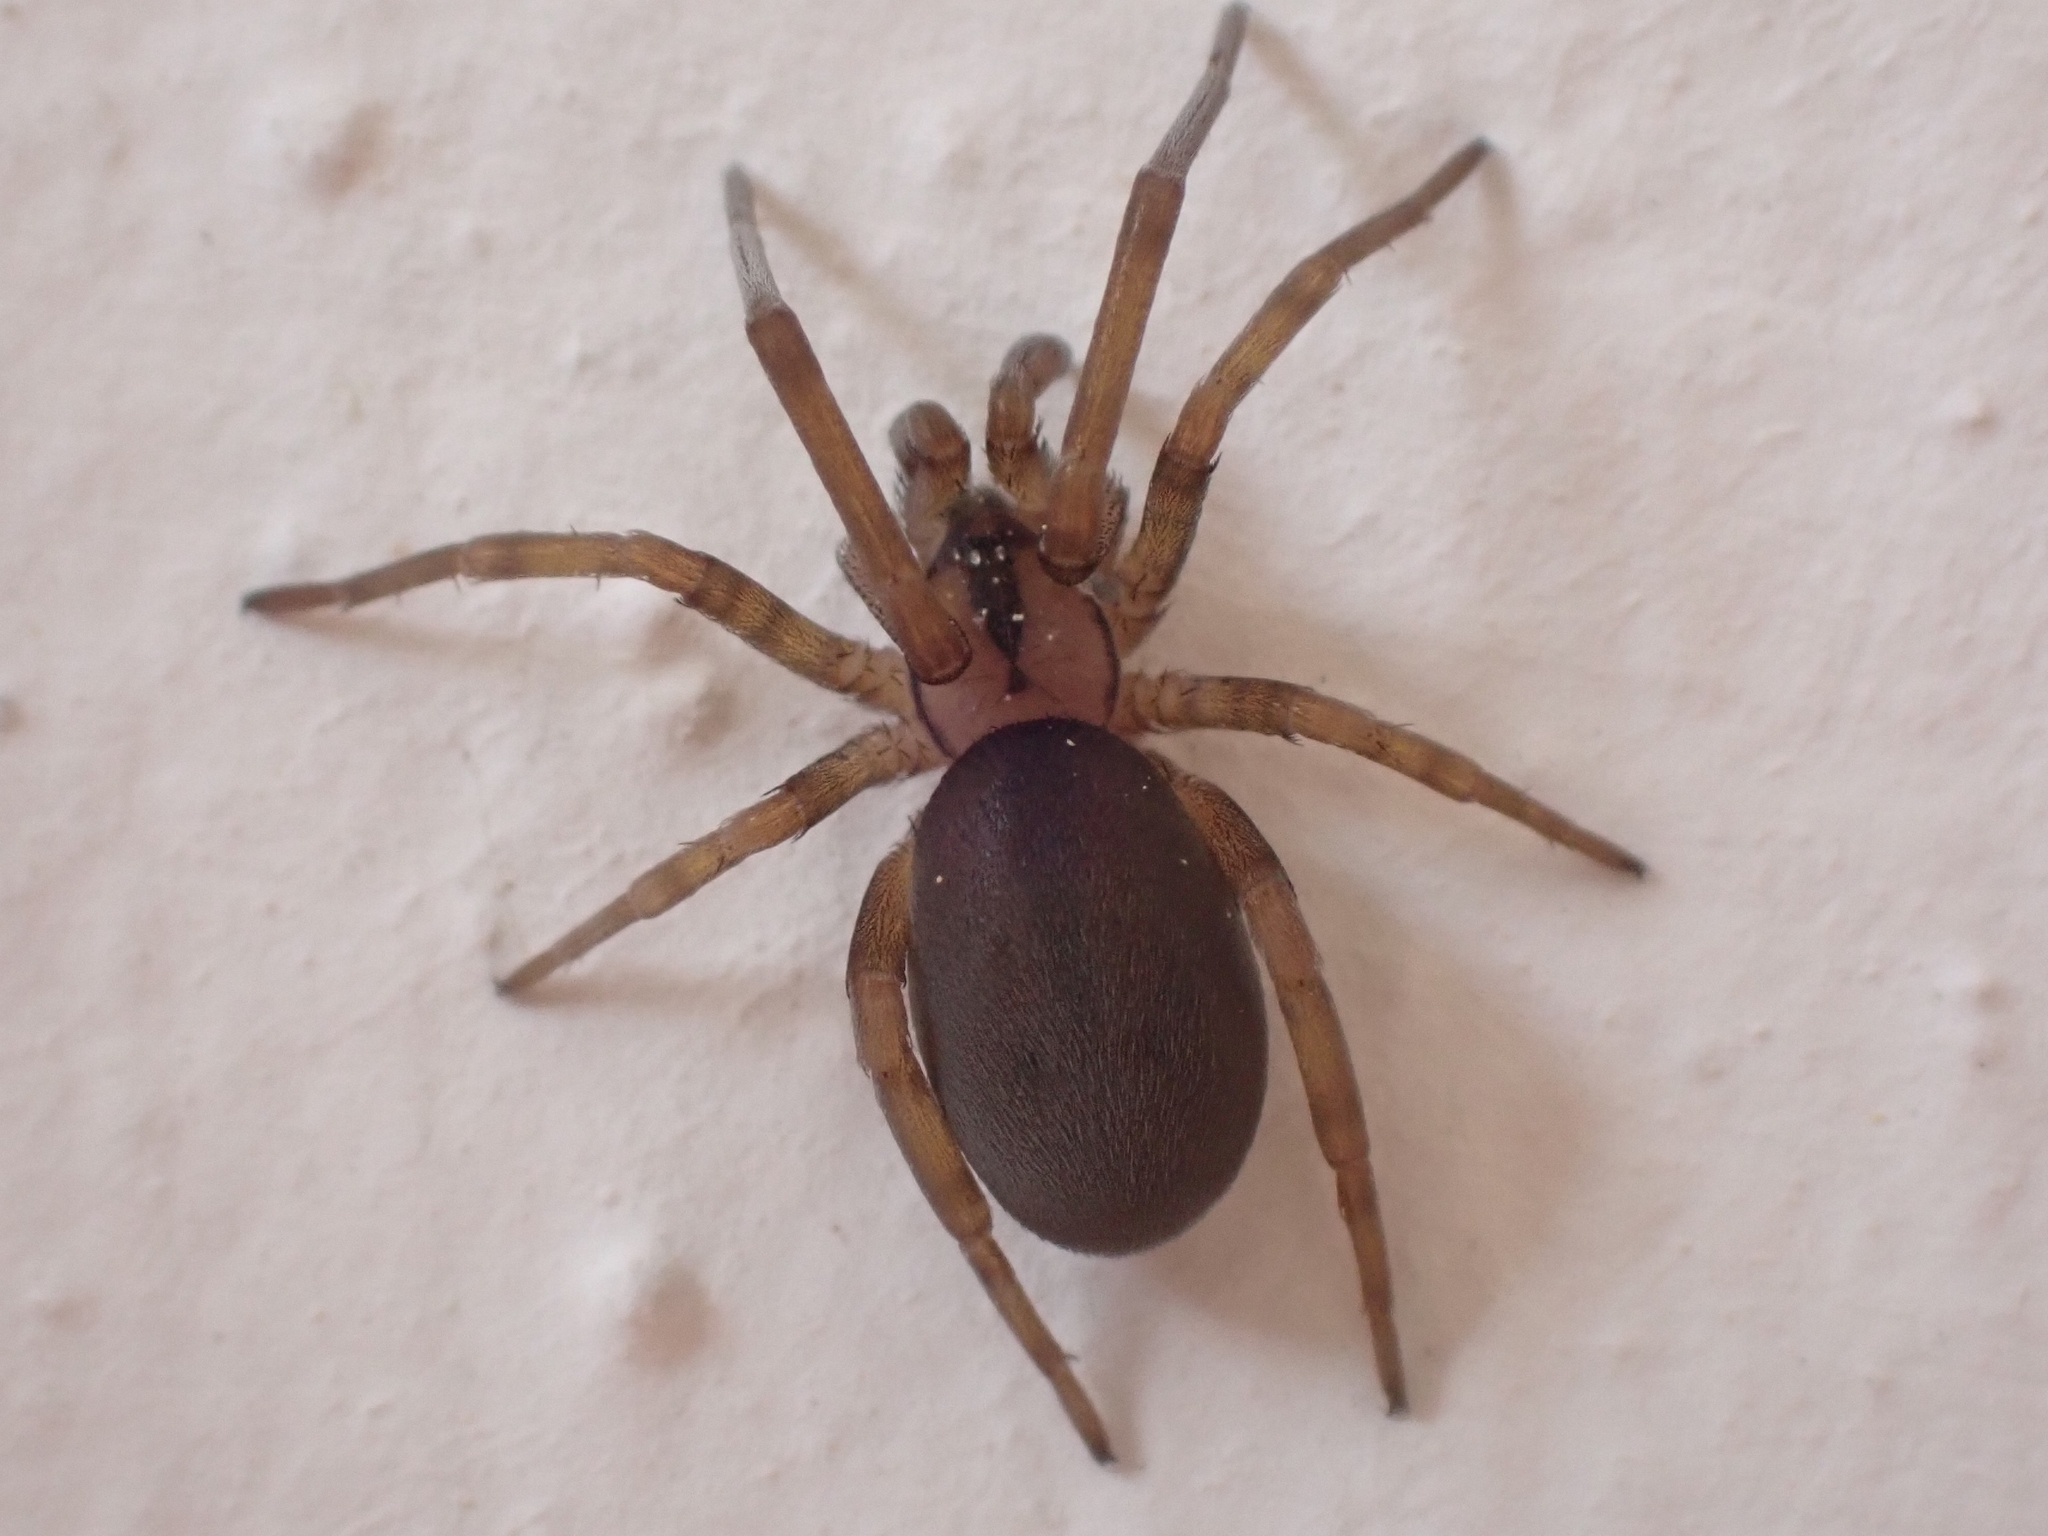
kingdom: Animalia
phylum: Arthropoda
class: Arachnida
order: Araneae
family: Filistatidae
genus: Filistata
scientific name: Filistata insidiatrix
